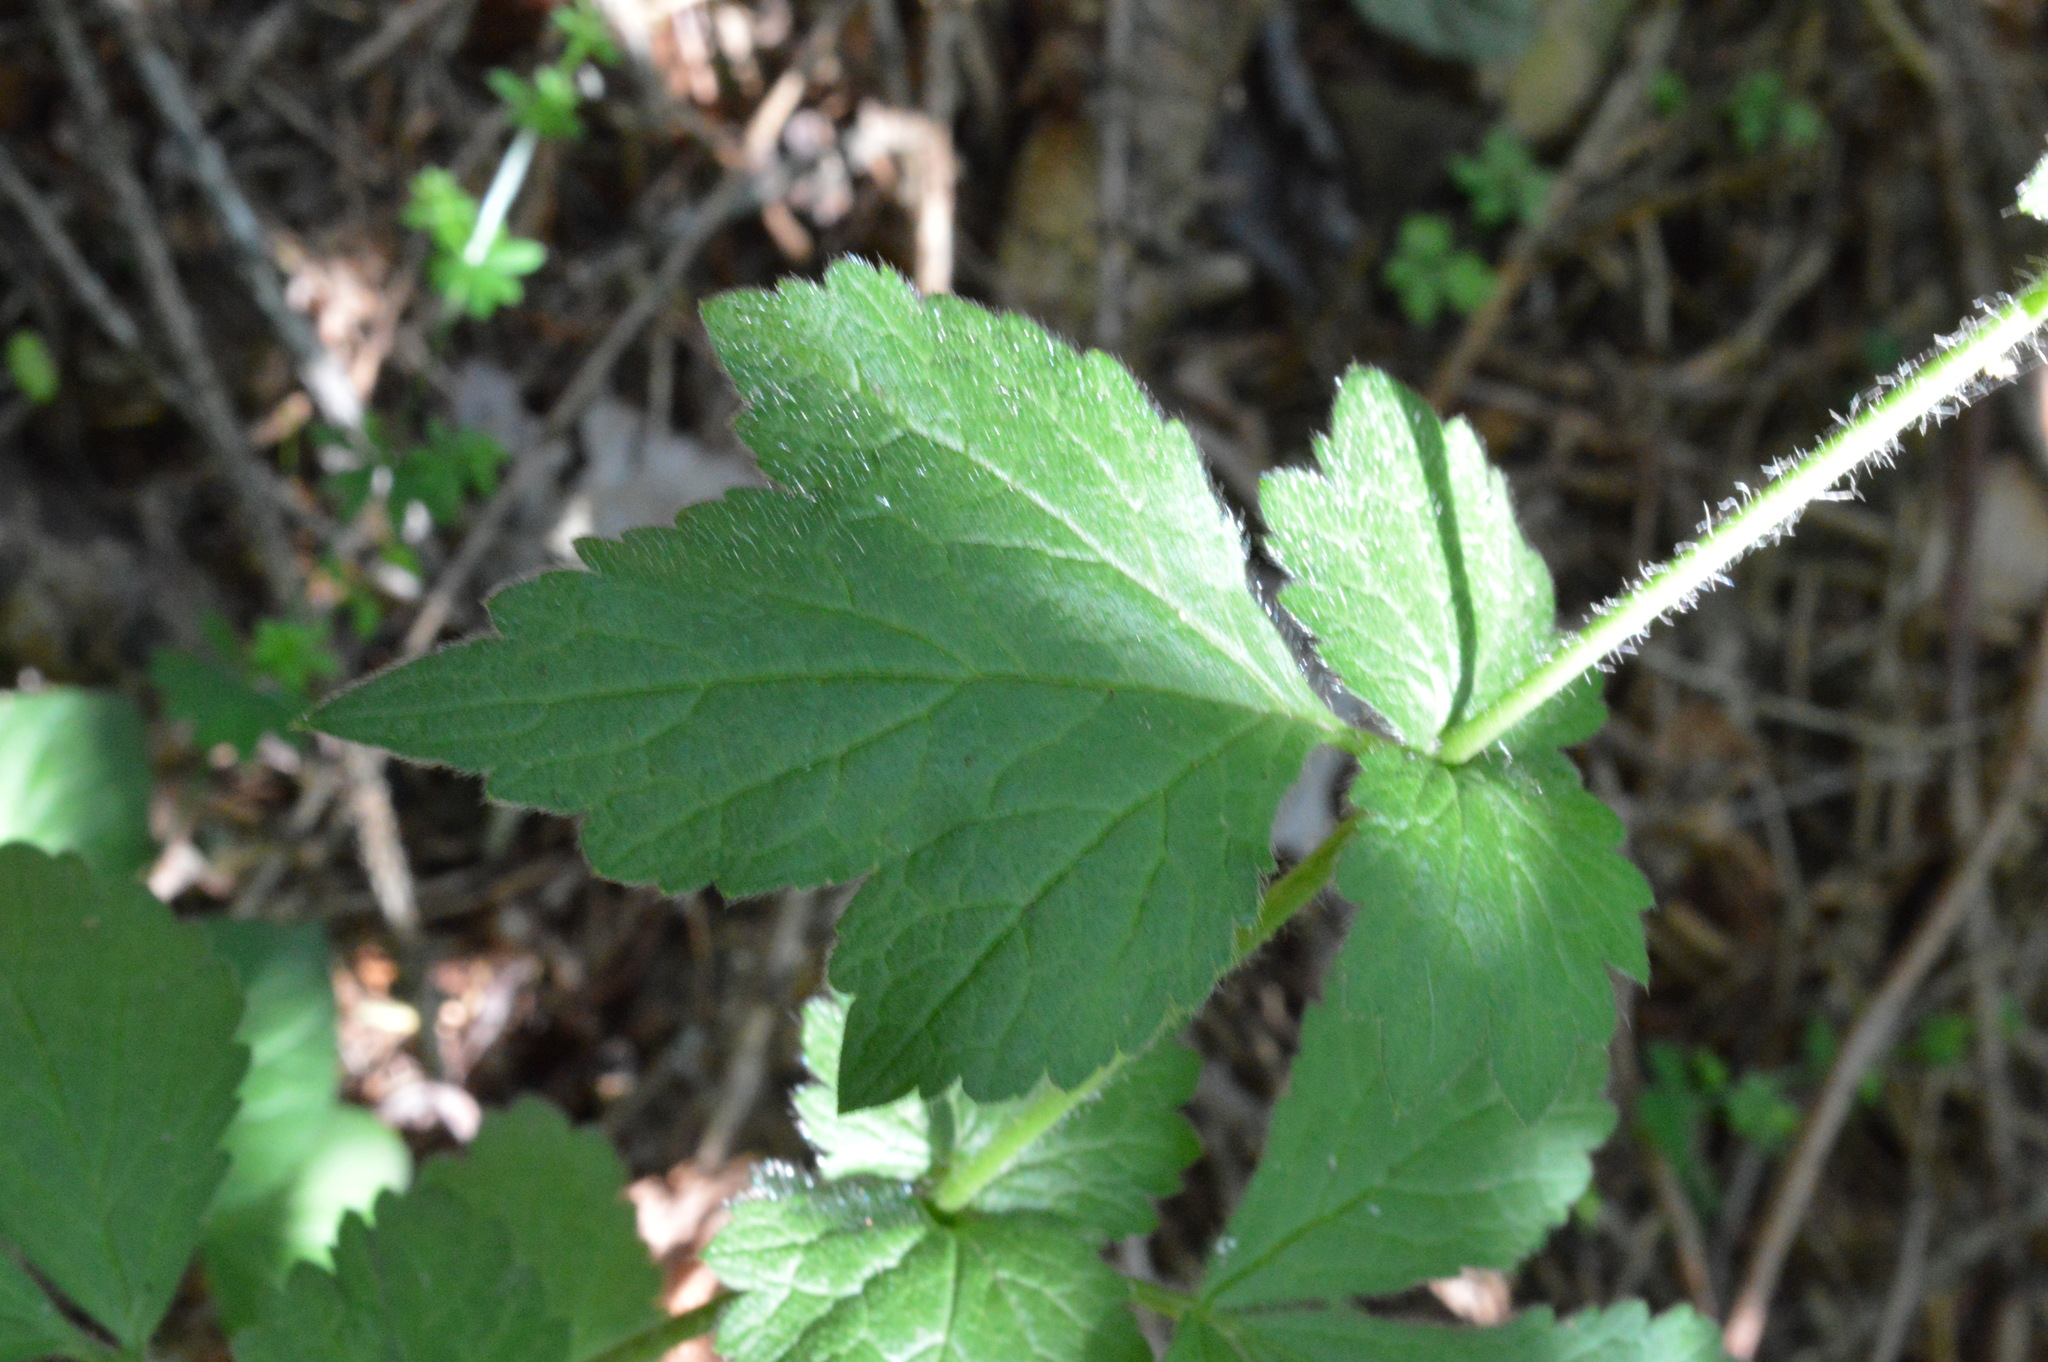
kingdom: Plantae
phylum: Tracheophyta
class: Magnoliopsida
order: Rosales
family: Rosaceae
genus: Geum
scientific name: Geum urbanum
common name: Wood avens
